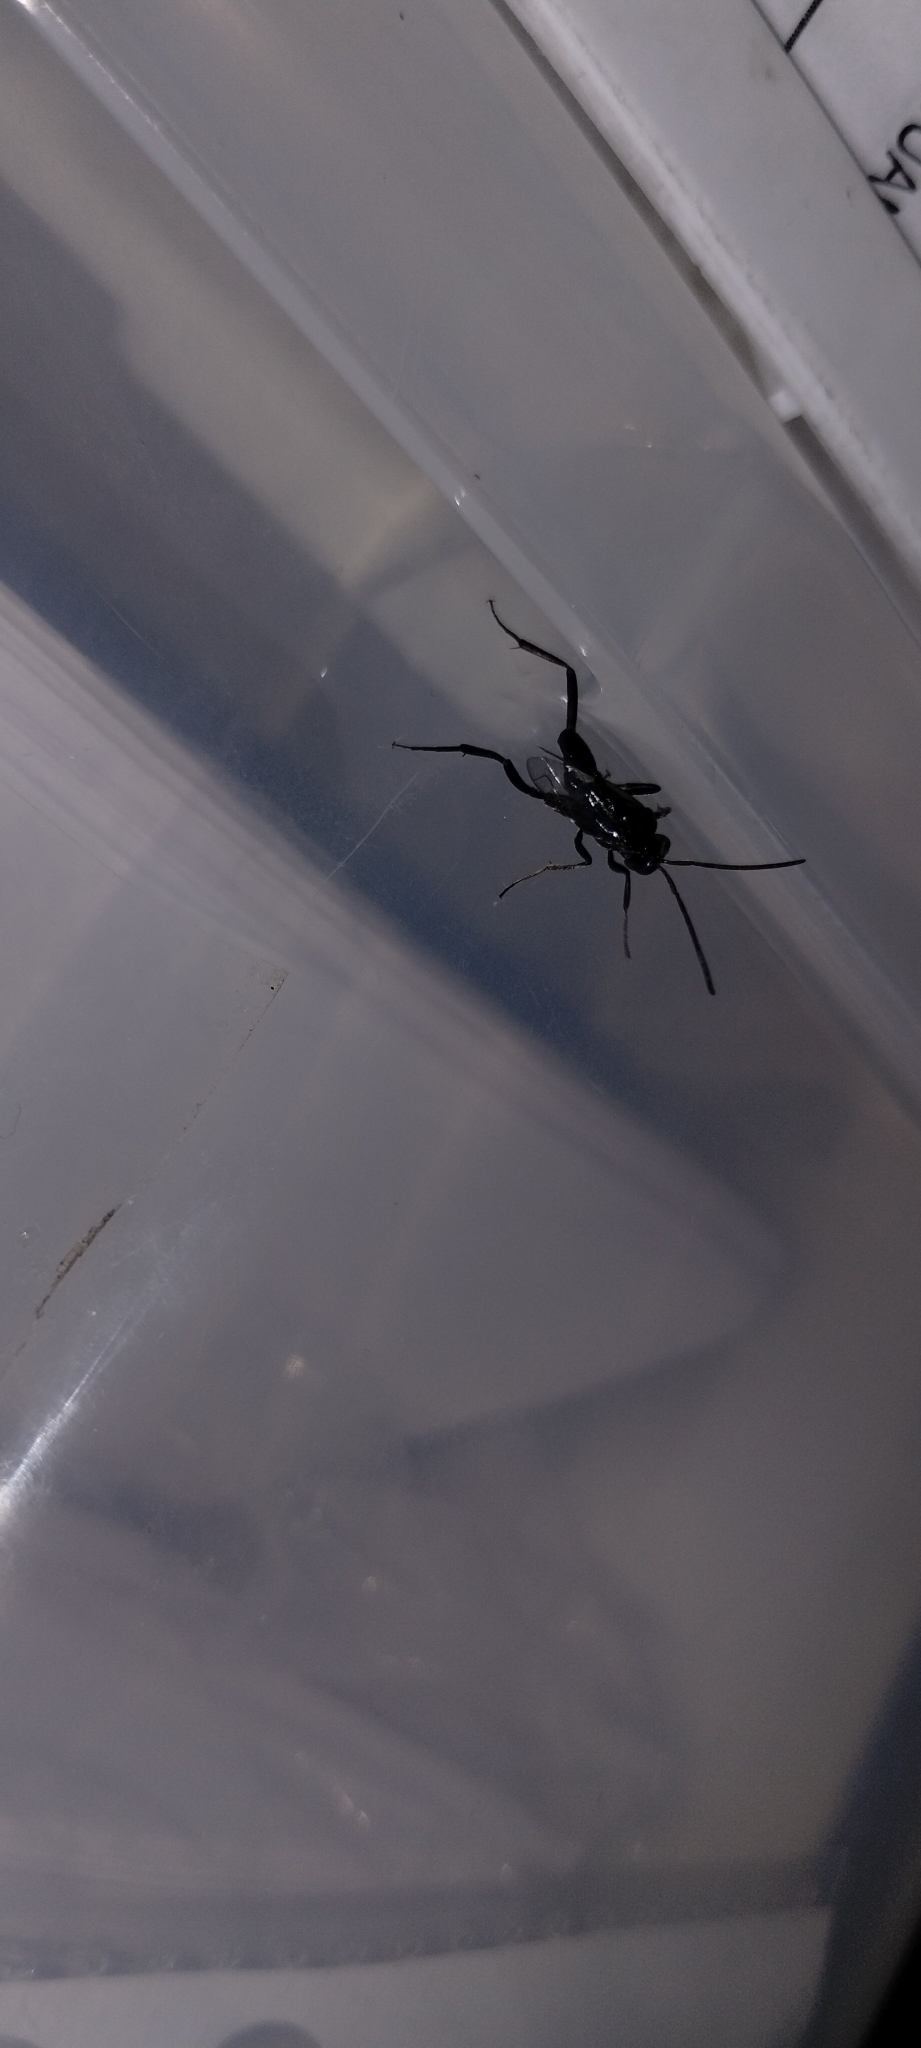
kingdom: Animalia
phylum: Arthropoda
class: Insecta
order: Hymenoptera
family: Evaniidae
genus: Evania
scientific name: Evania appendigaster
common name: Ensign wasp
